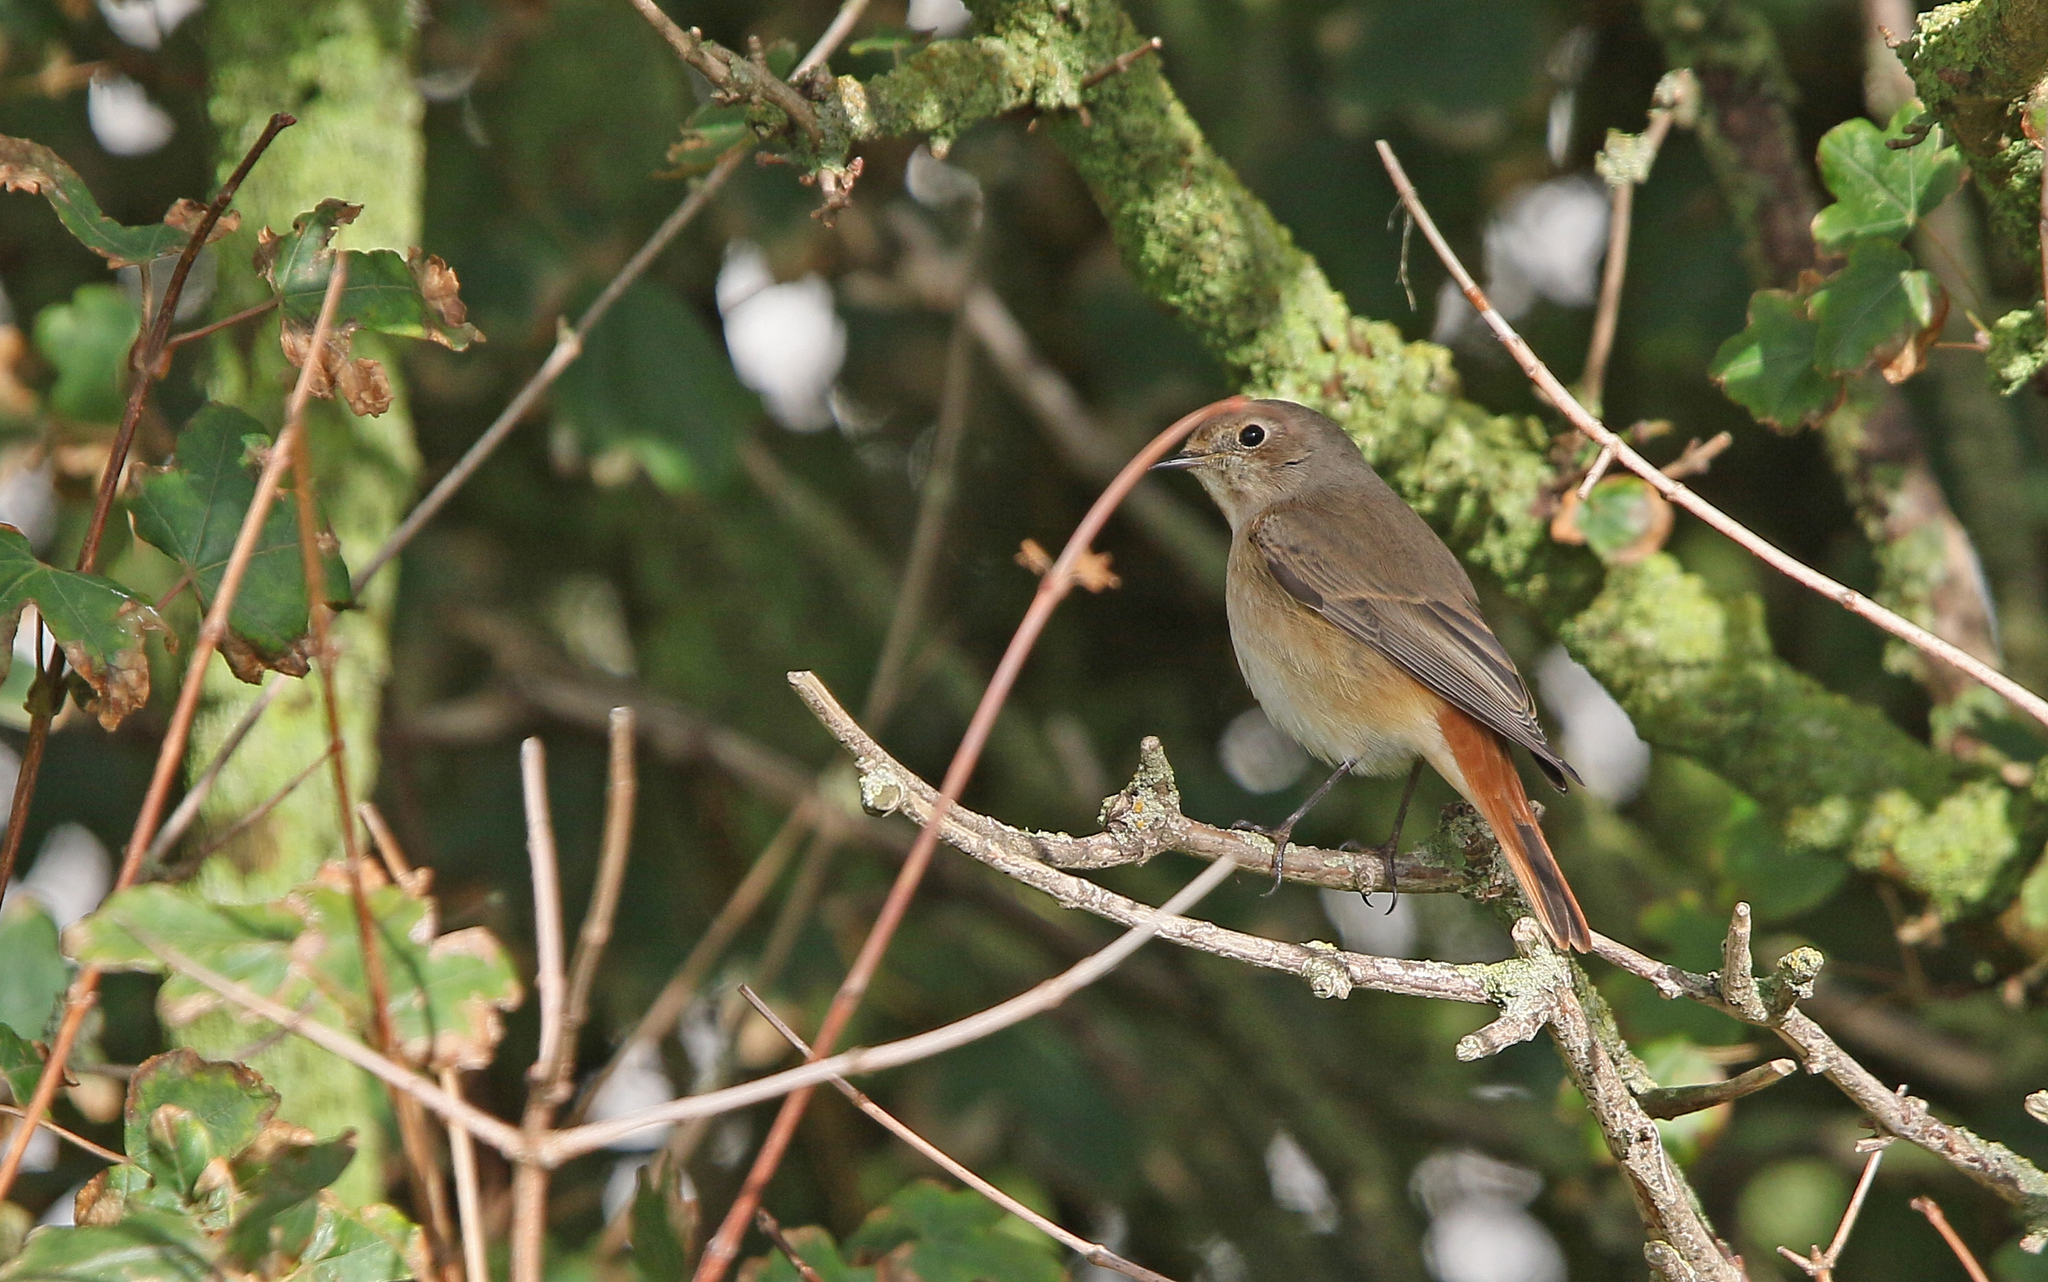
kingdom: Animalia
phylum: Chordata
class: Aves
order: Passeriformes
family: Muscicapidae
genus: Phoenicurus
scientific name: Phoenicurus phoenicurus
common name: Common redstart
